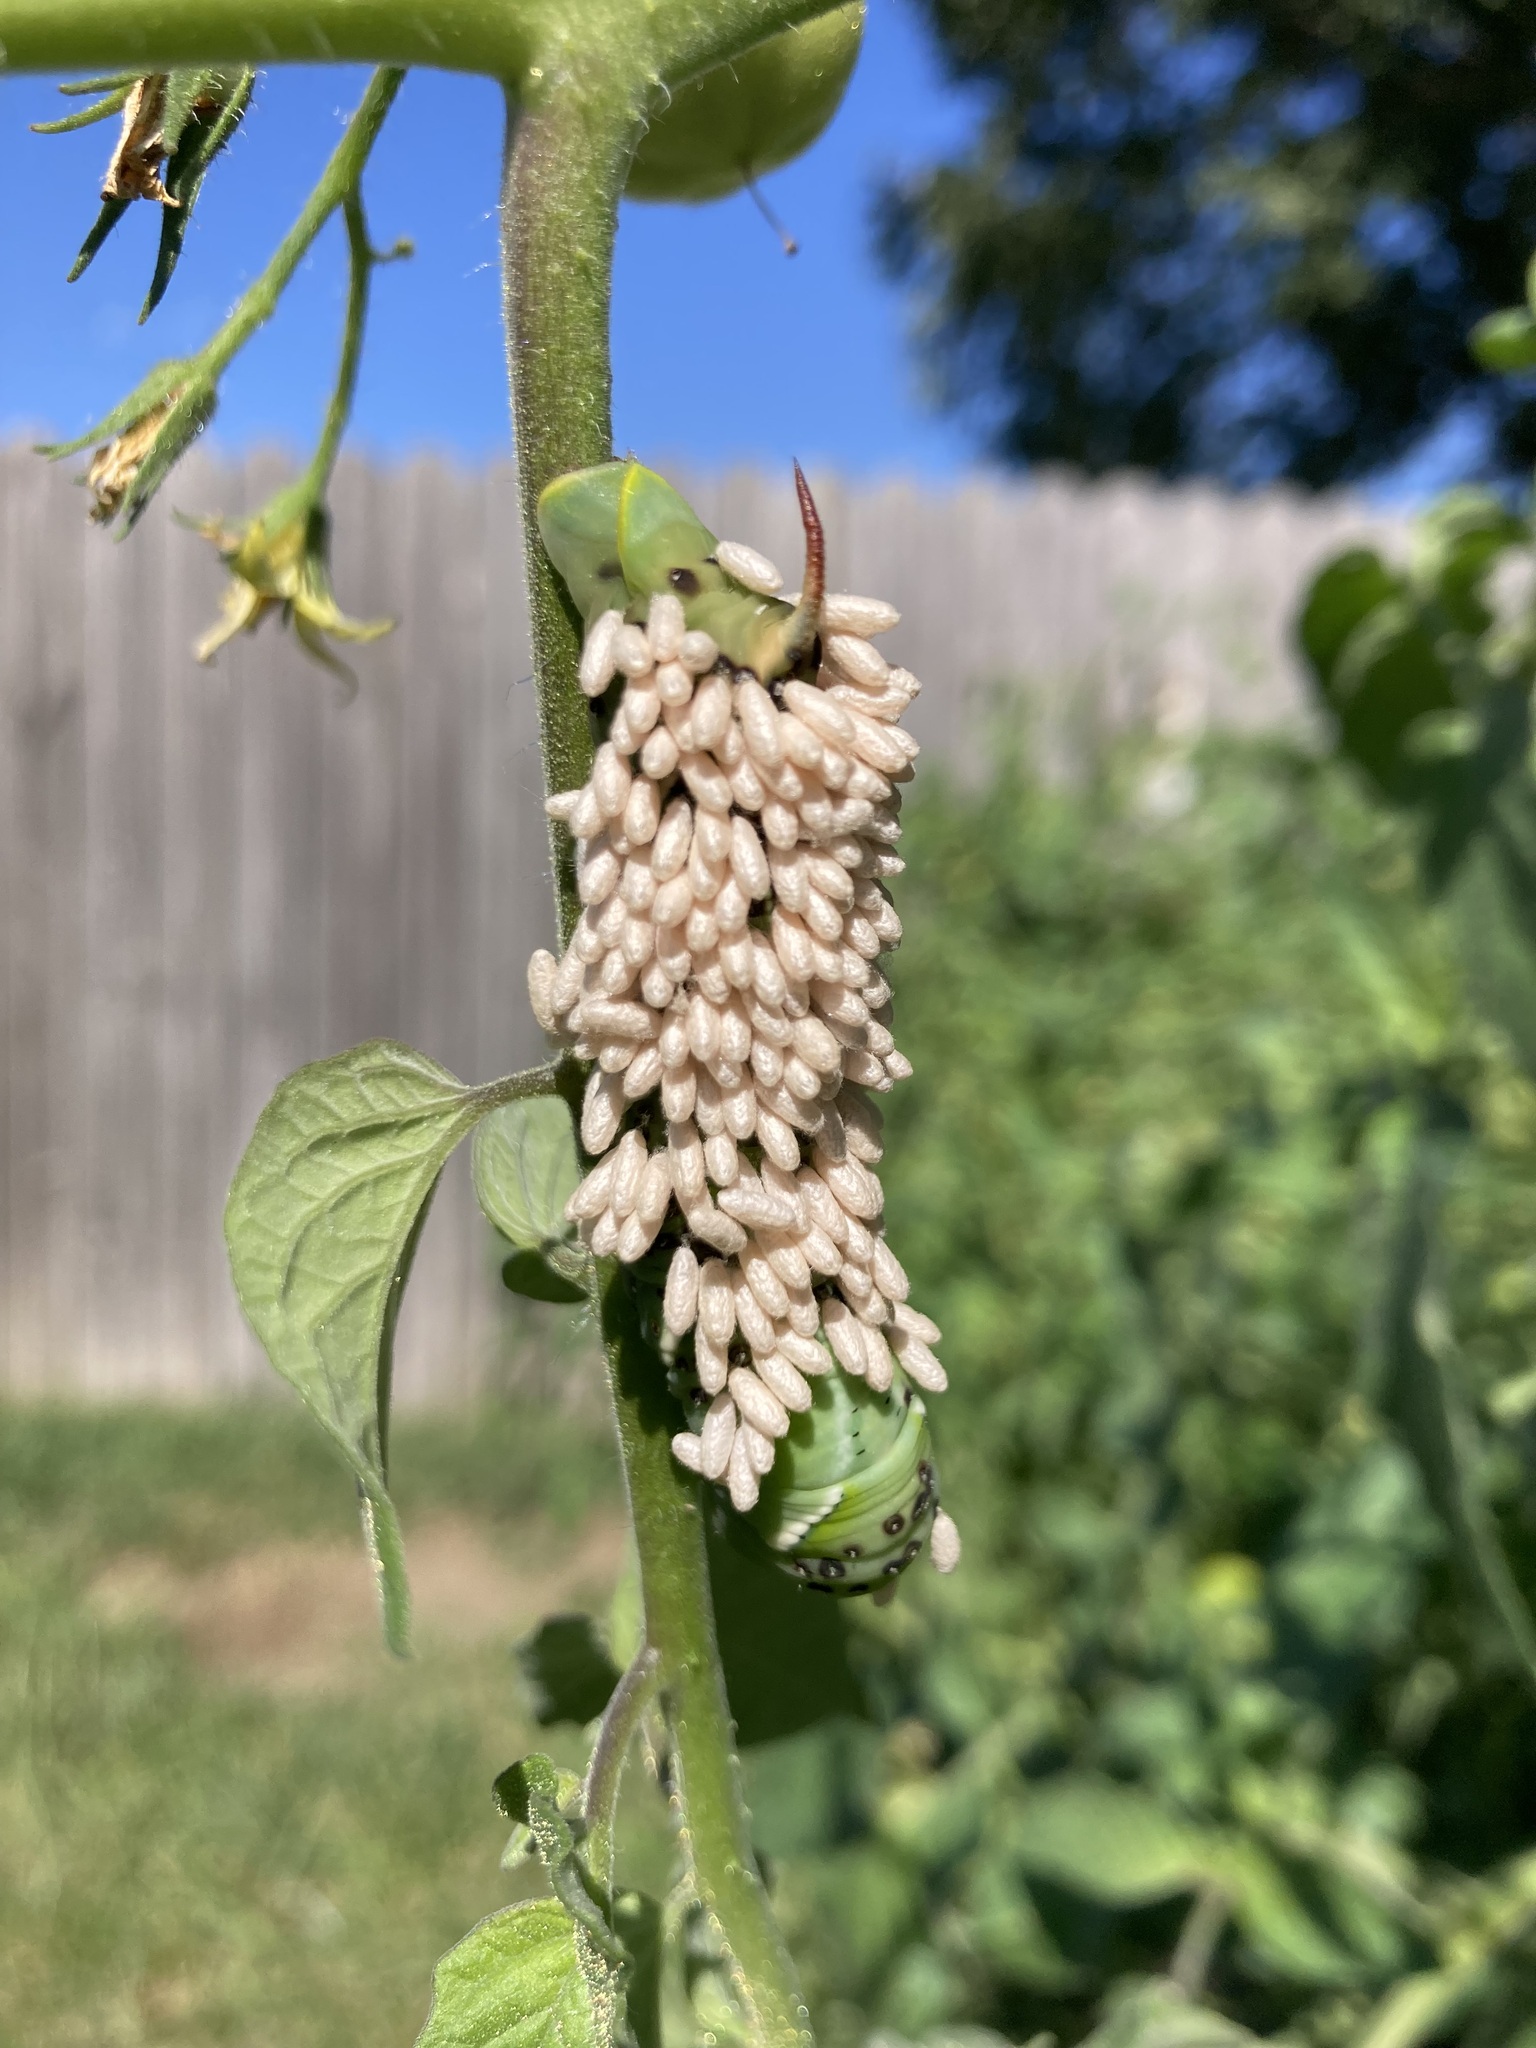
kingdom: Animalia
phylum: Arthropoda
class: Insecta
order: Hymenoptera
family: Braconidae
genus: Cotesia
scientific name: Cotesia congregata
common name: Hornworm parasitoid wasp
